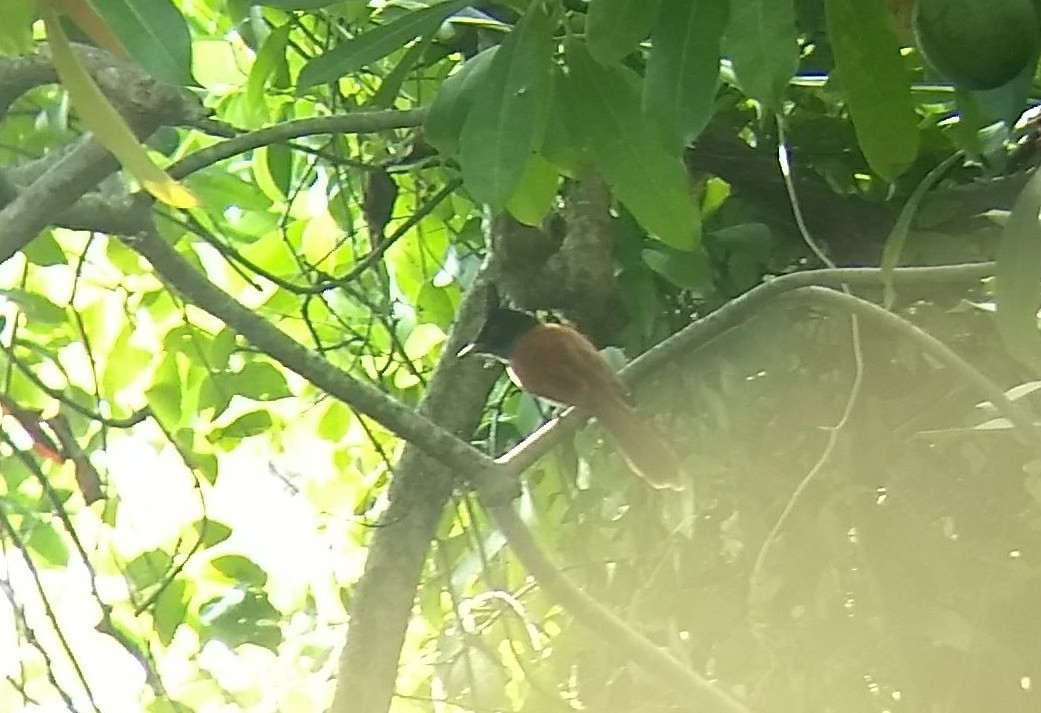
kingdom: Animalia
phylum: Chordata
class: Aves
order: Passeriformes
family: Monarchidae
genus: Terpsiphone
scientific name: Terpsiphone paradisi
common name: Indian paradise flycatcher
